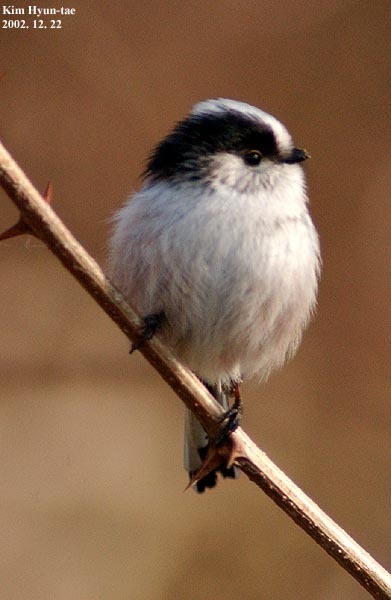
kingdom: Animalia
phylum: Chordata
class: Aves
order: Passeriformes
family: Aegithalidae
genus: Aegithalos
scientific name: Aegithalos caudatus
